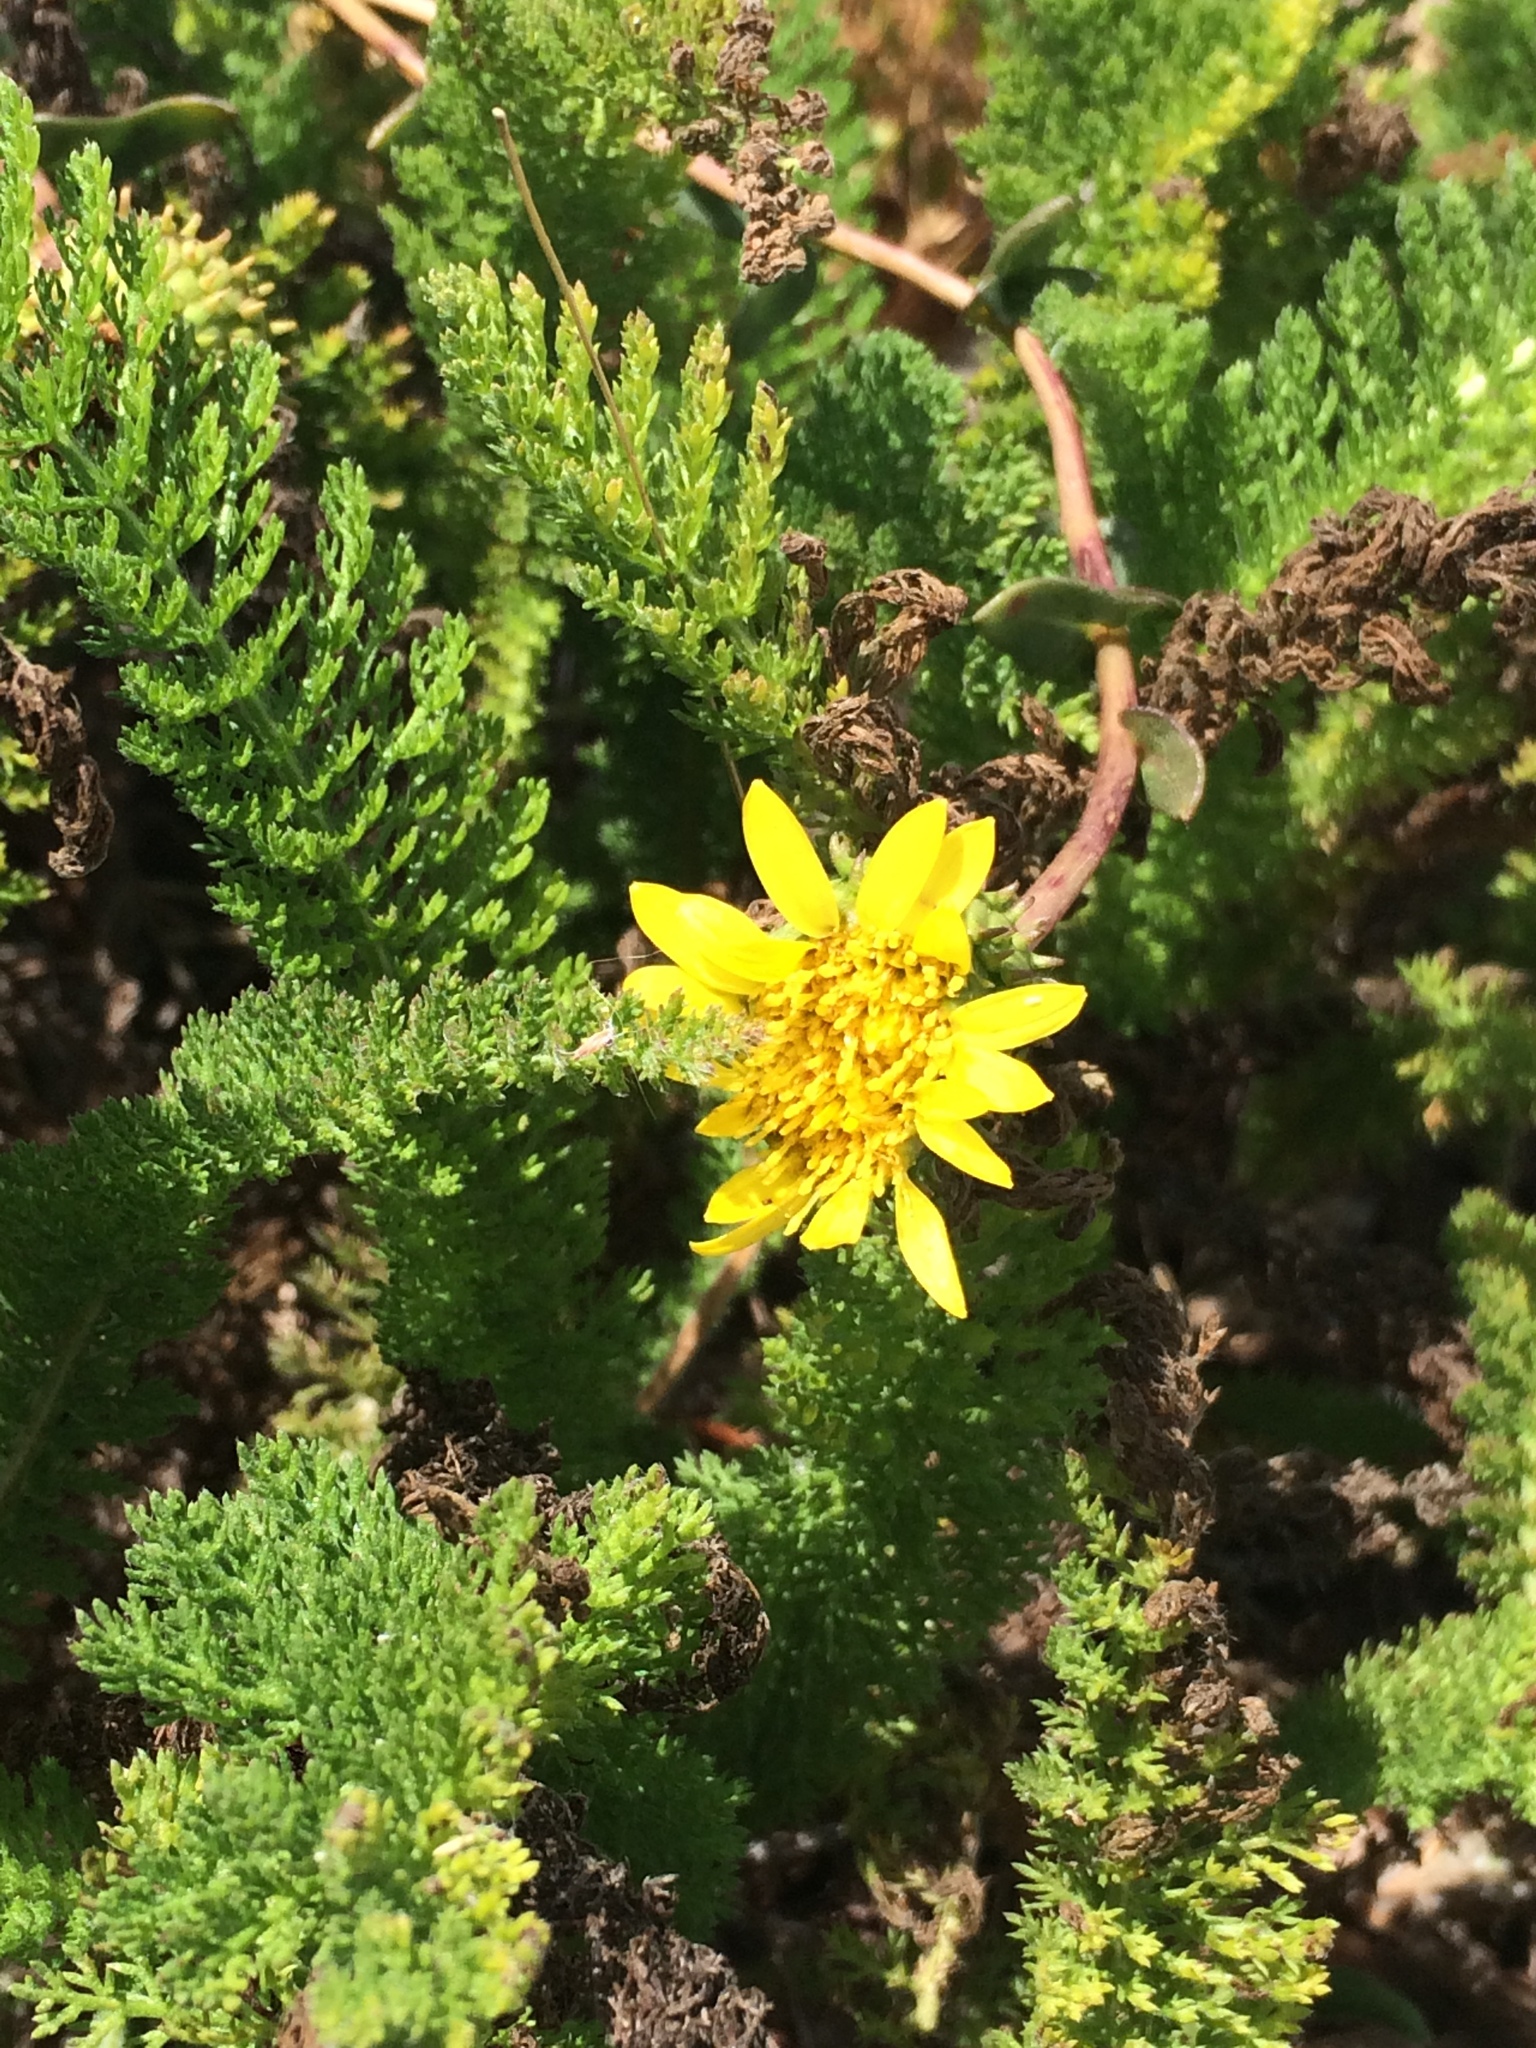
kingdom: Plantae
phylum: Tracheophyta
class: Magnoliopsida
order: Asterales
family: Asteraceae
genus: Achillea
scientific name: Achillea millefolium
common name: Yarrow
